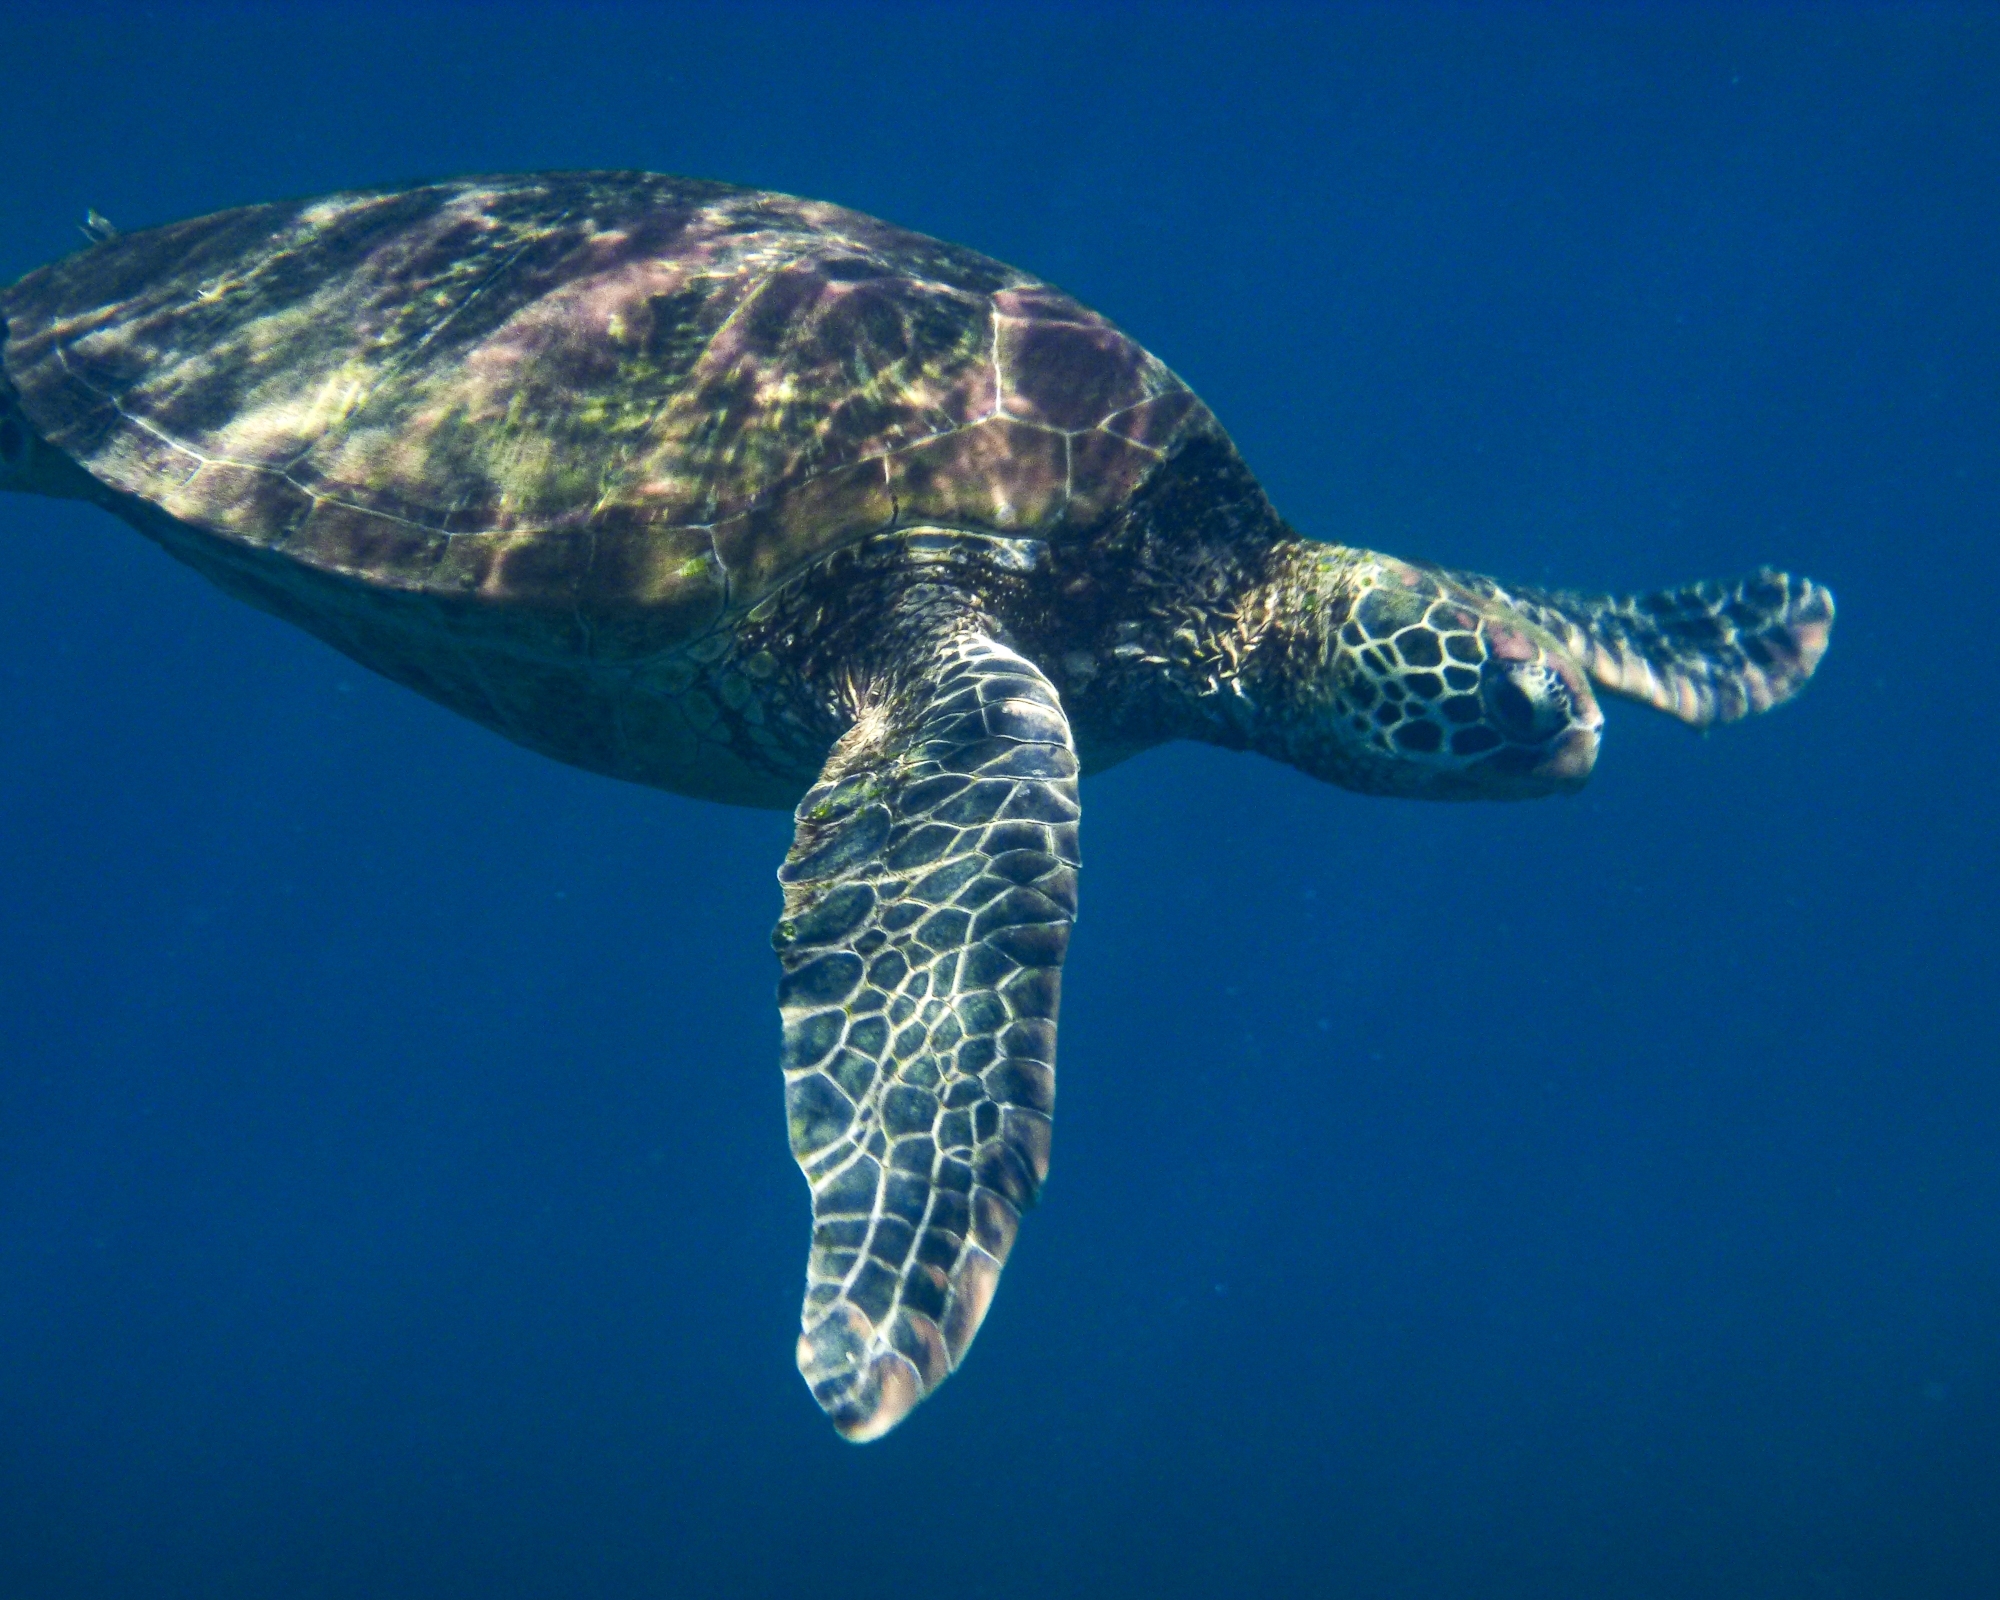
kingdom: Animalia
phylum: Chordata
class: Testudines
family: Cheloniidae
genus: Chelonia
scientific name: Chelonia mydas
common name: Green turtle
